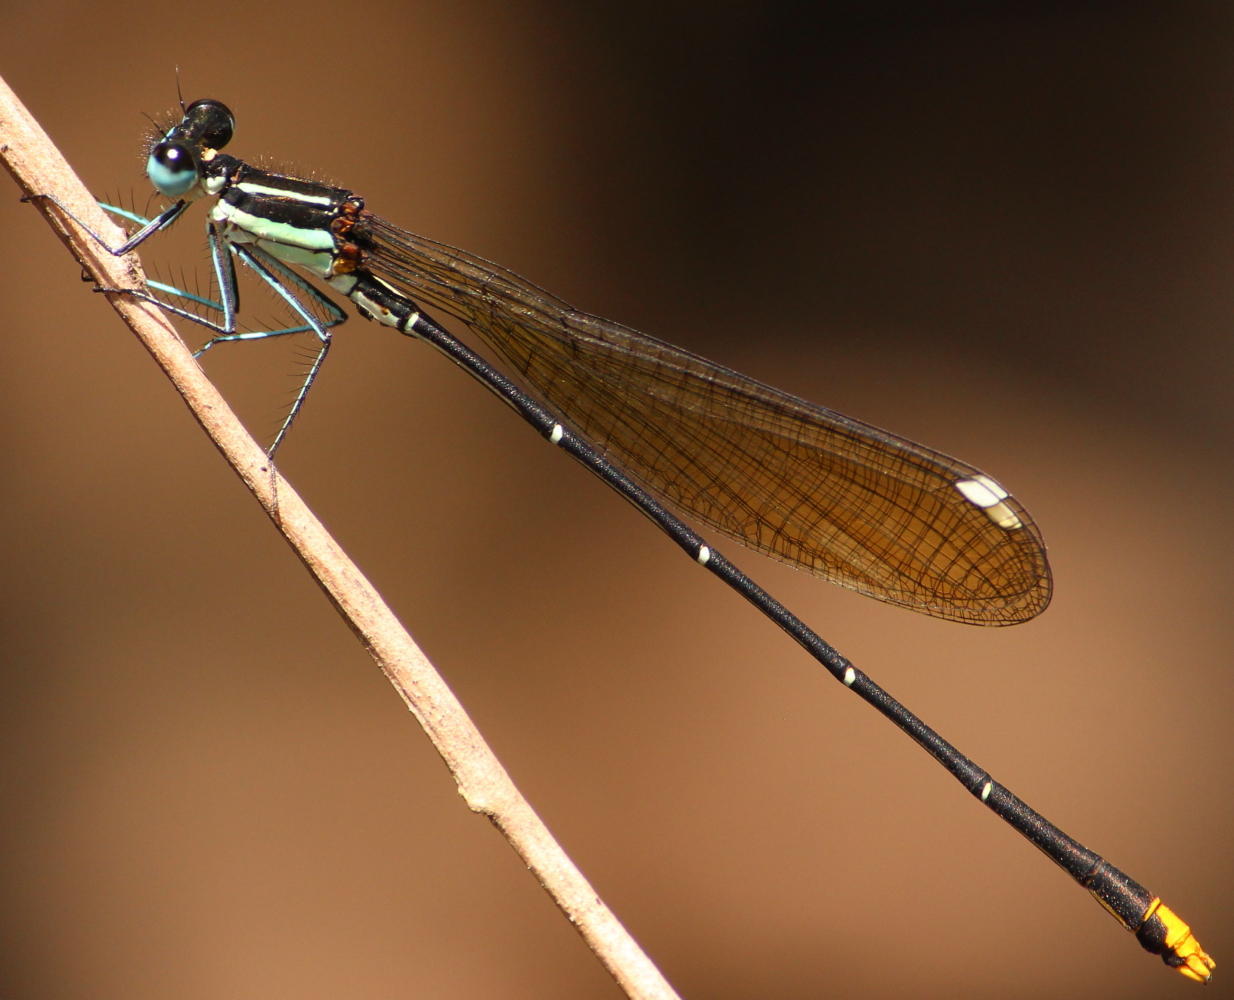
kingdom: Animalia
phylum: Arthropoda
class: Insecta
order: Odonata
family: Platycnemididae
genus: Allocnemis
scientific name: Allocnemis leucosticta
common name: Goldtail
